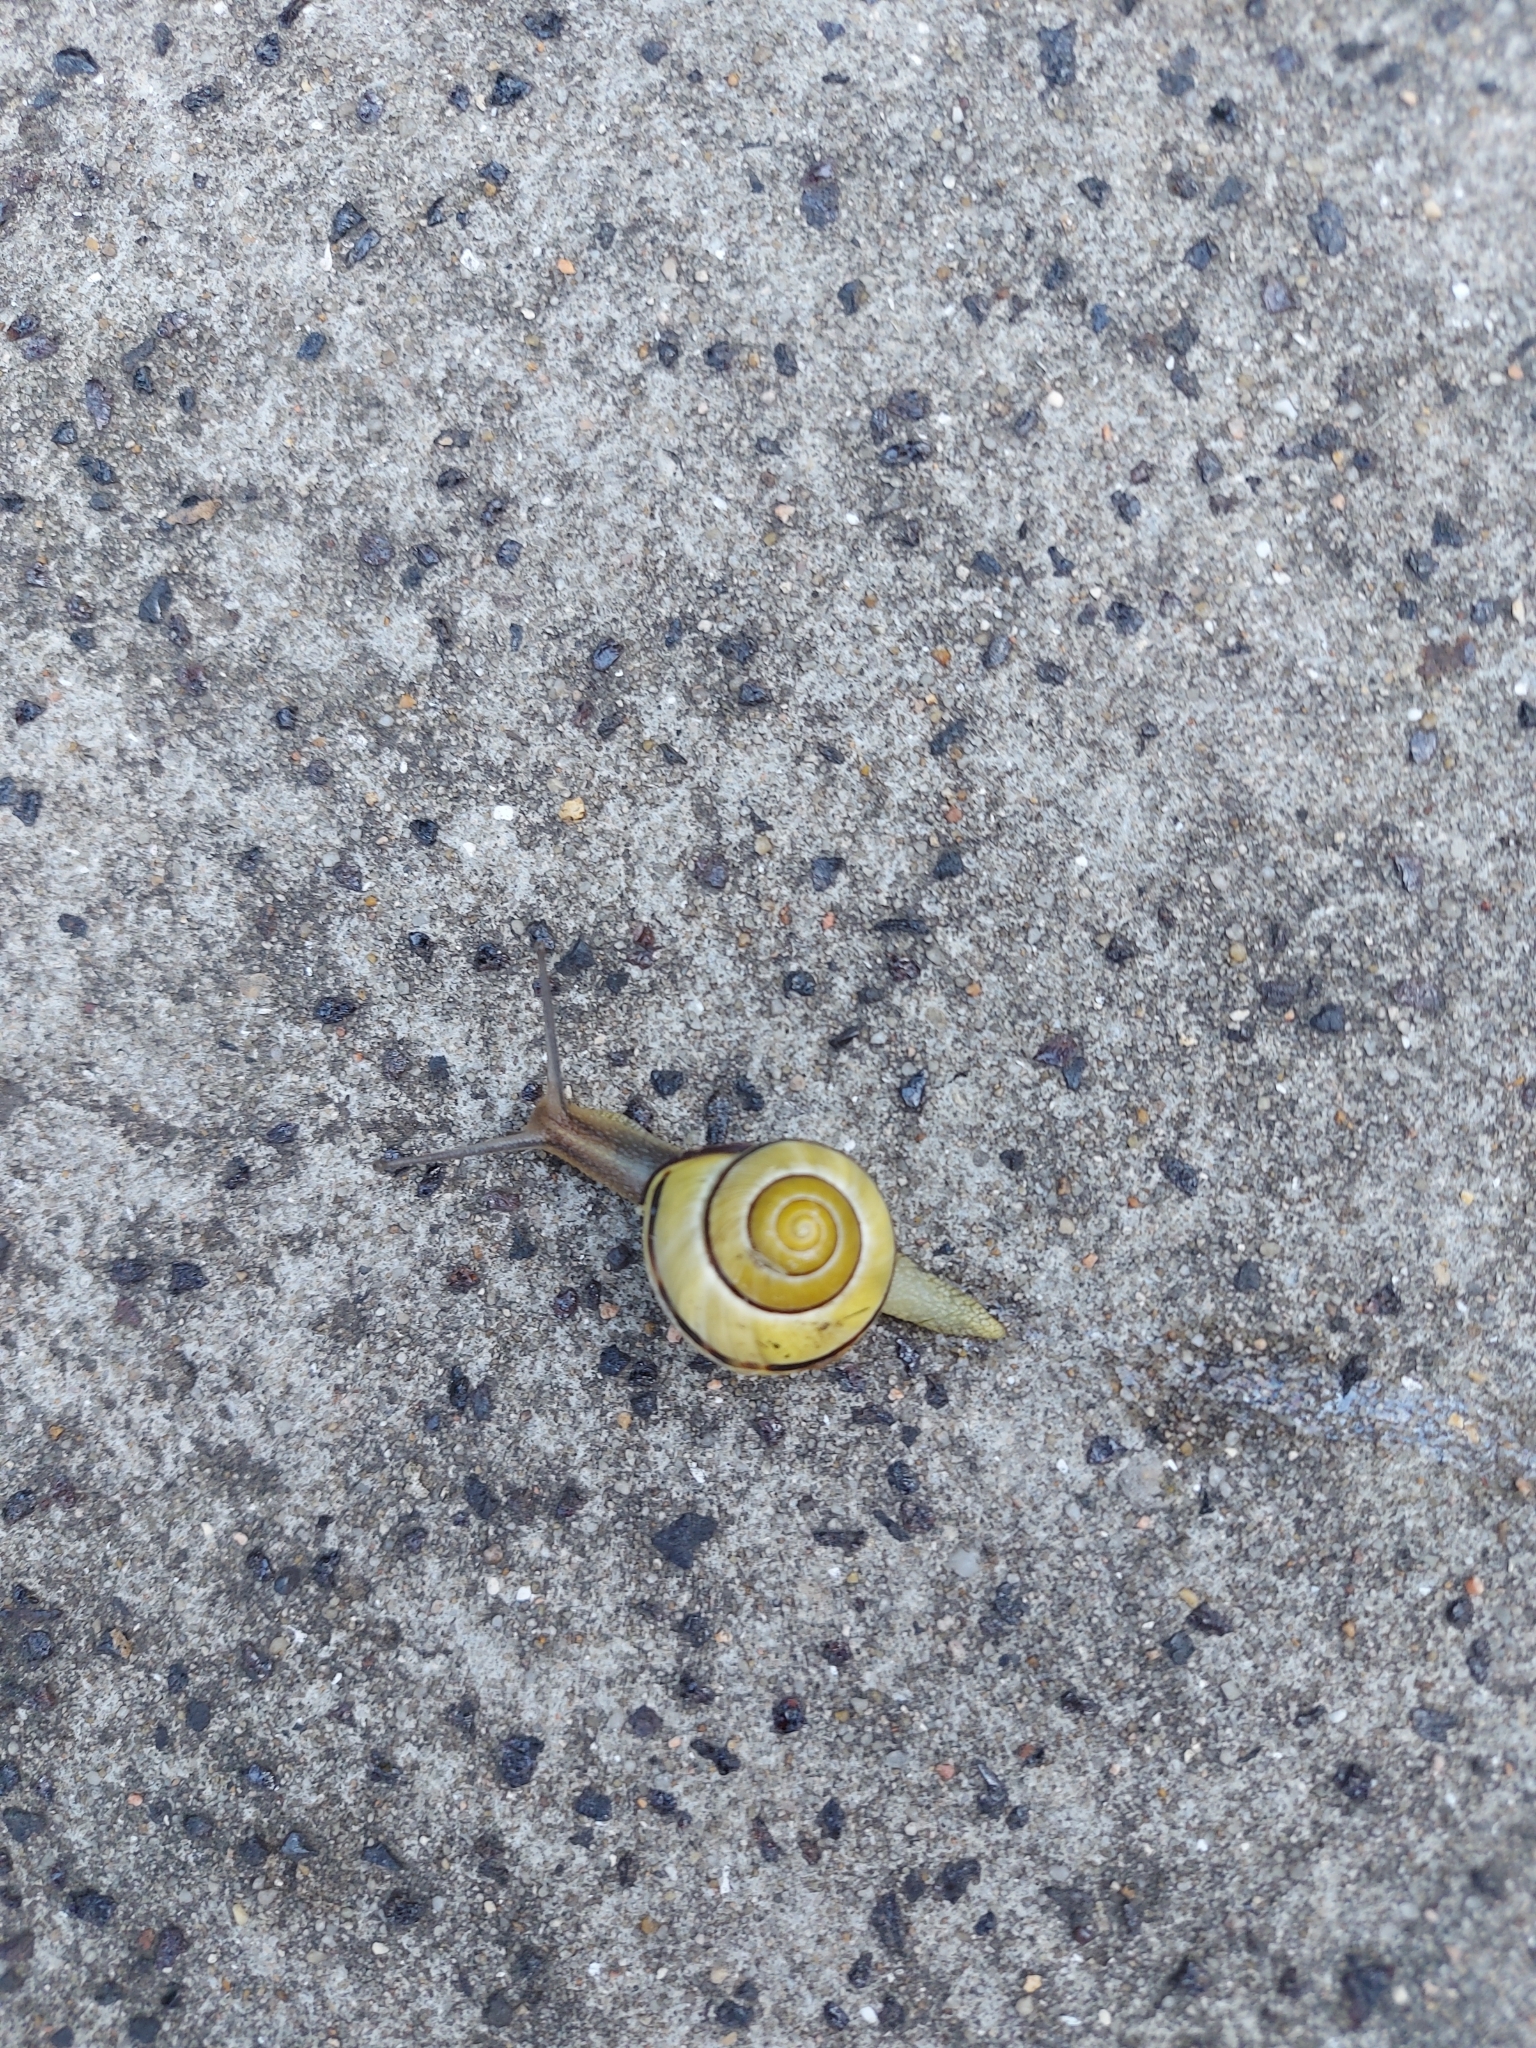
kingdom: Animalia
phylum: Mollusca
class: Gastropoda
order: Stylommatophora
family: Helicidae
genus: Cepaea
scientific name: Cepaea nemoralis
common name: Grovesnail
